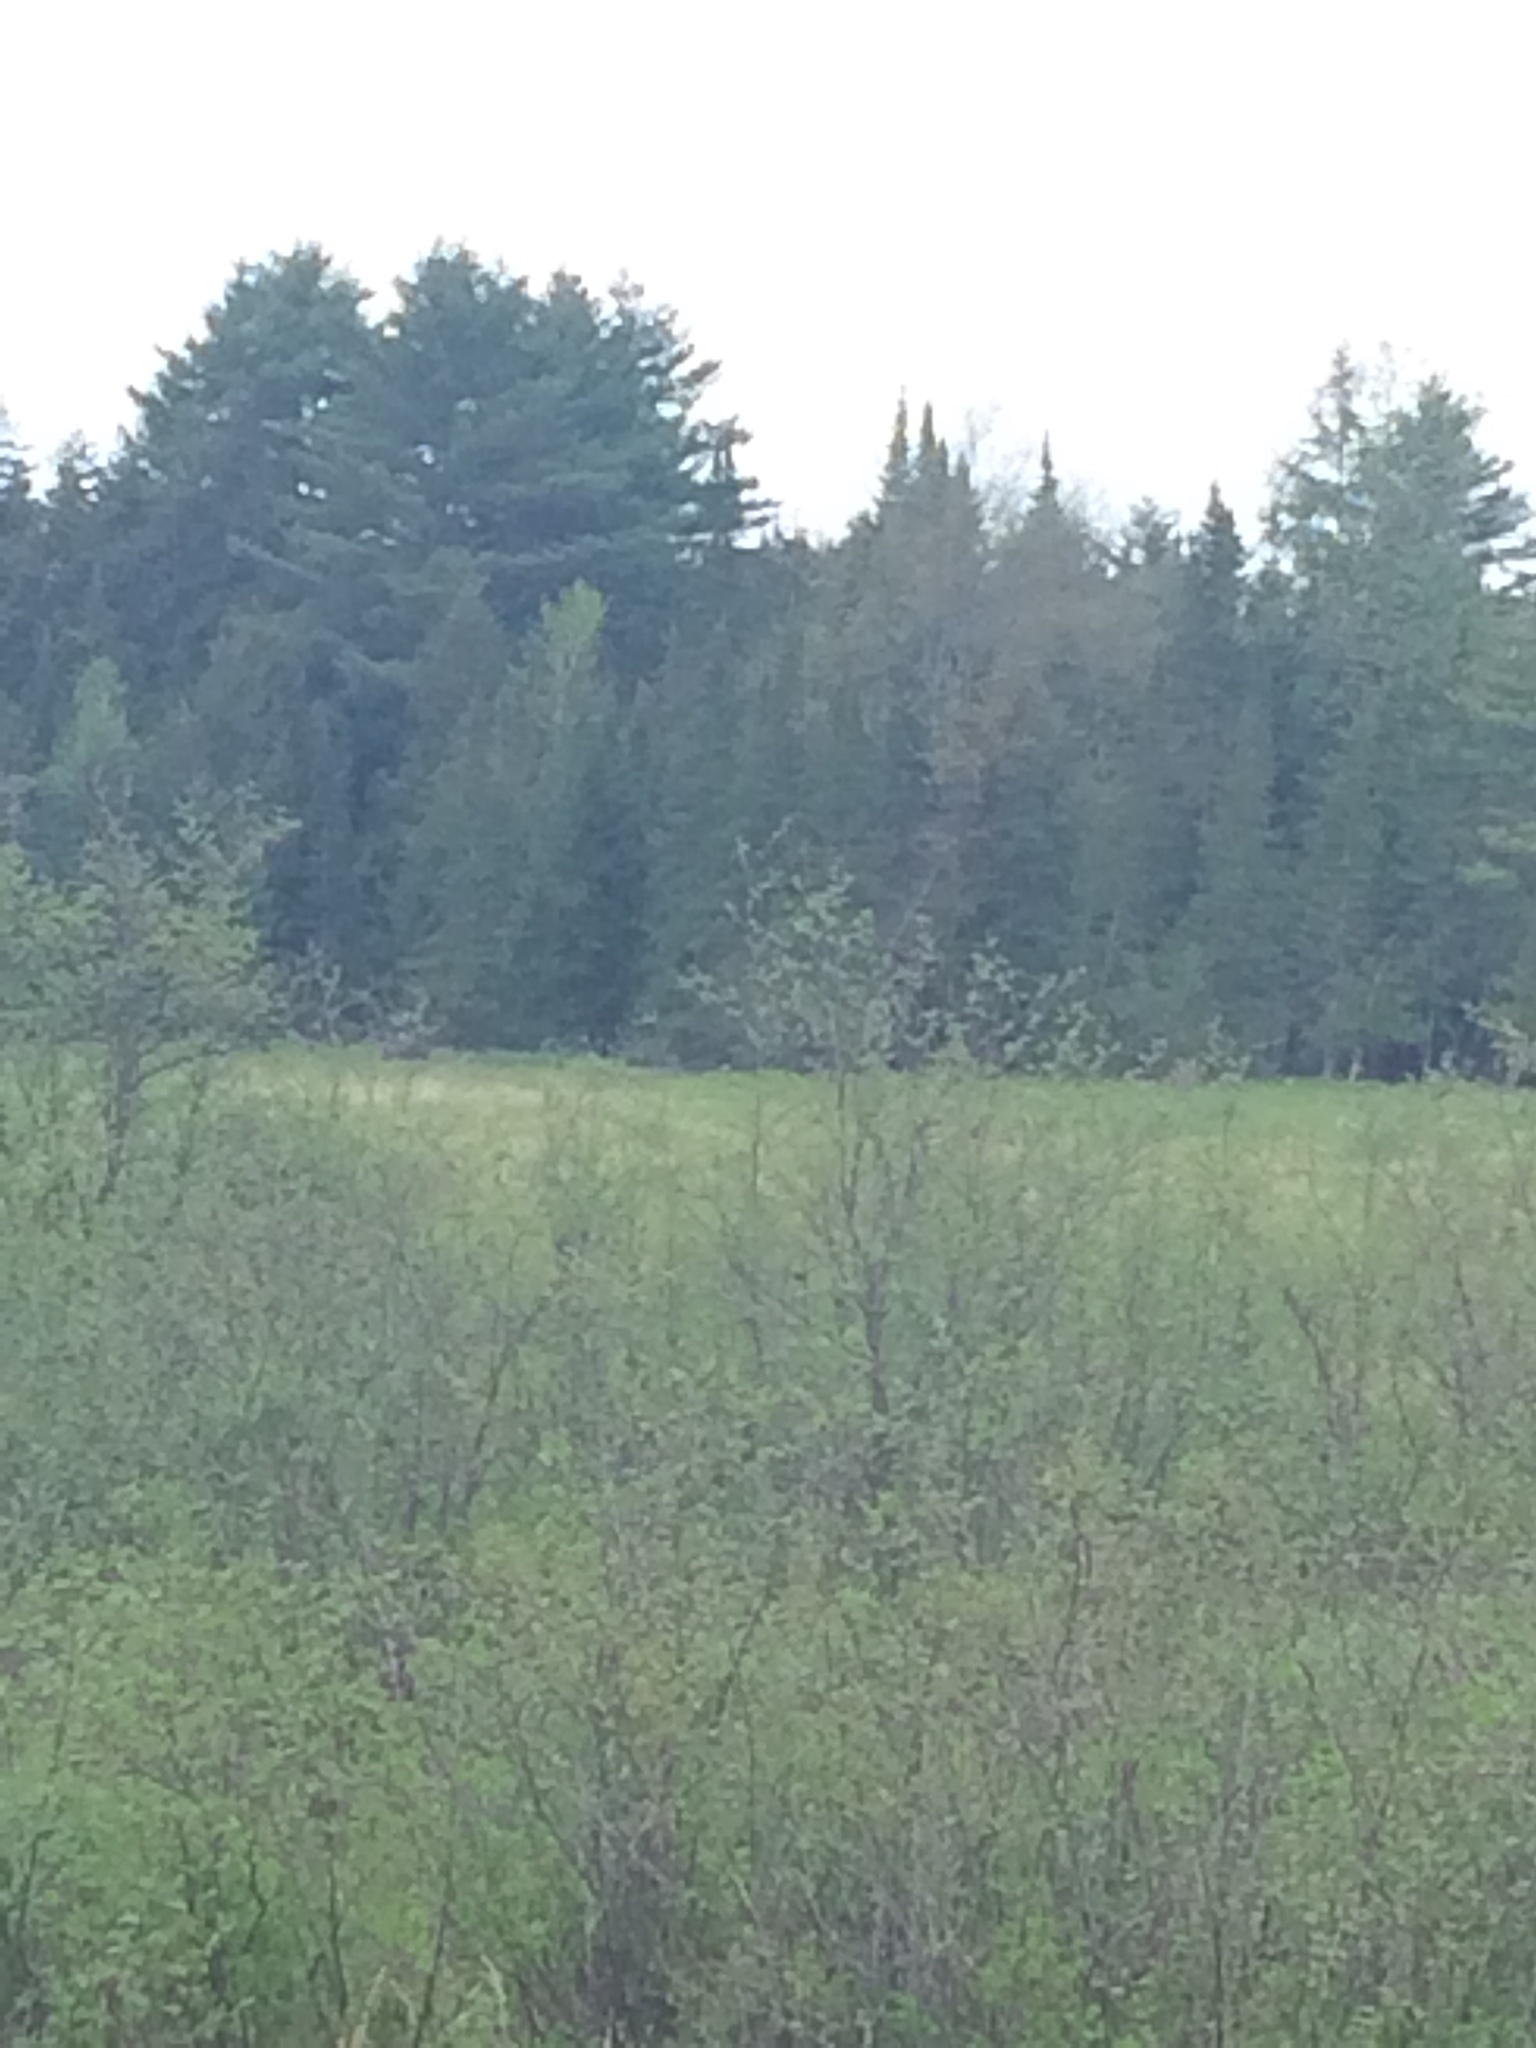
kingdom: Plantae
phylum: Tracheophyta
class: Pinopsida
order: Pinales
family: Pinaceae
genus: Pinus
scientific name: Pinus strobus
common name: Weymouth pine
